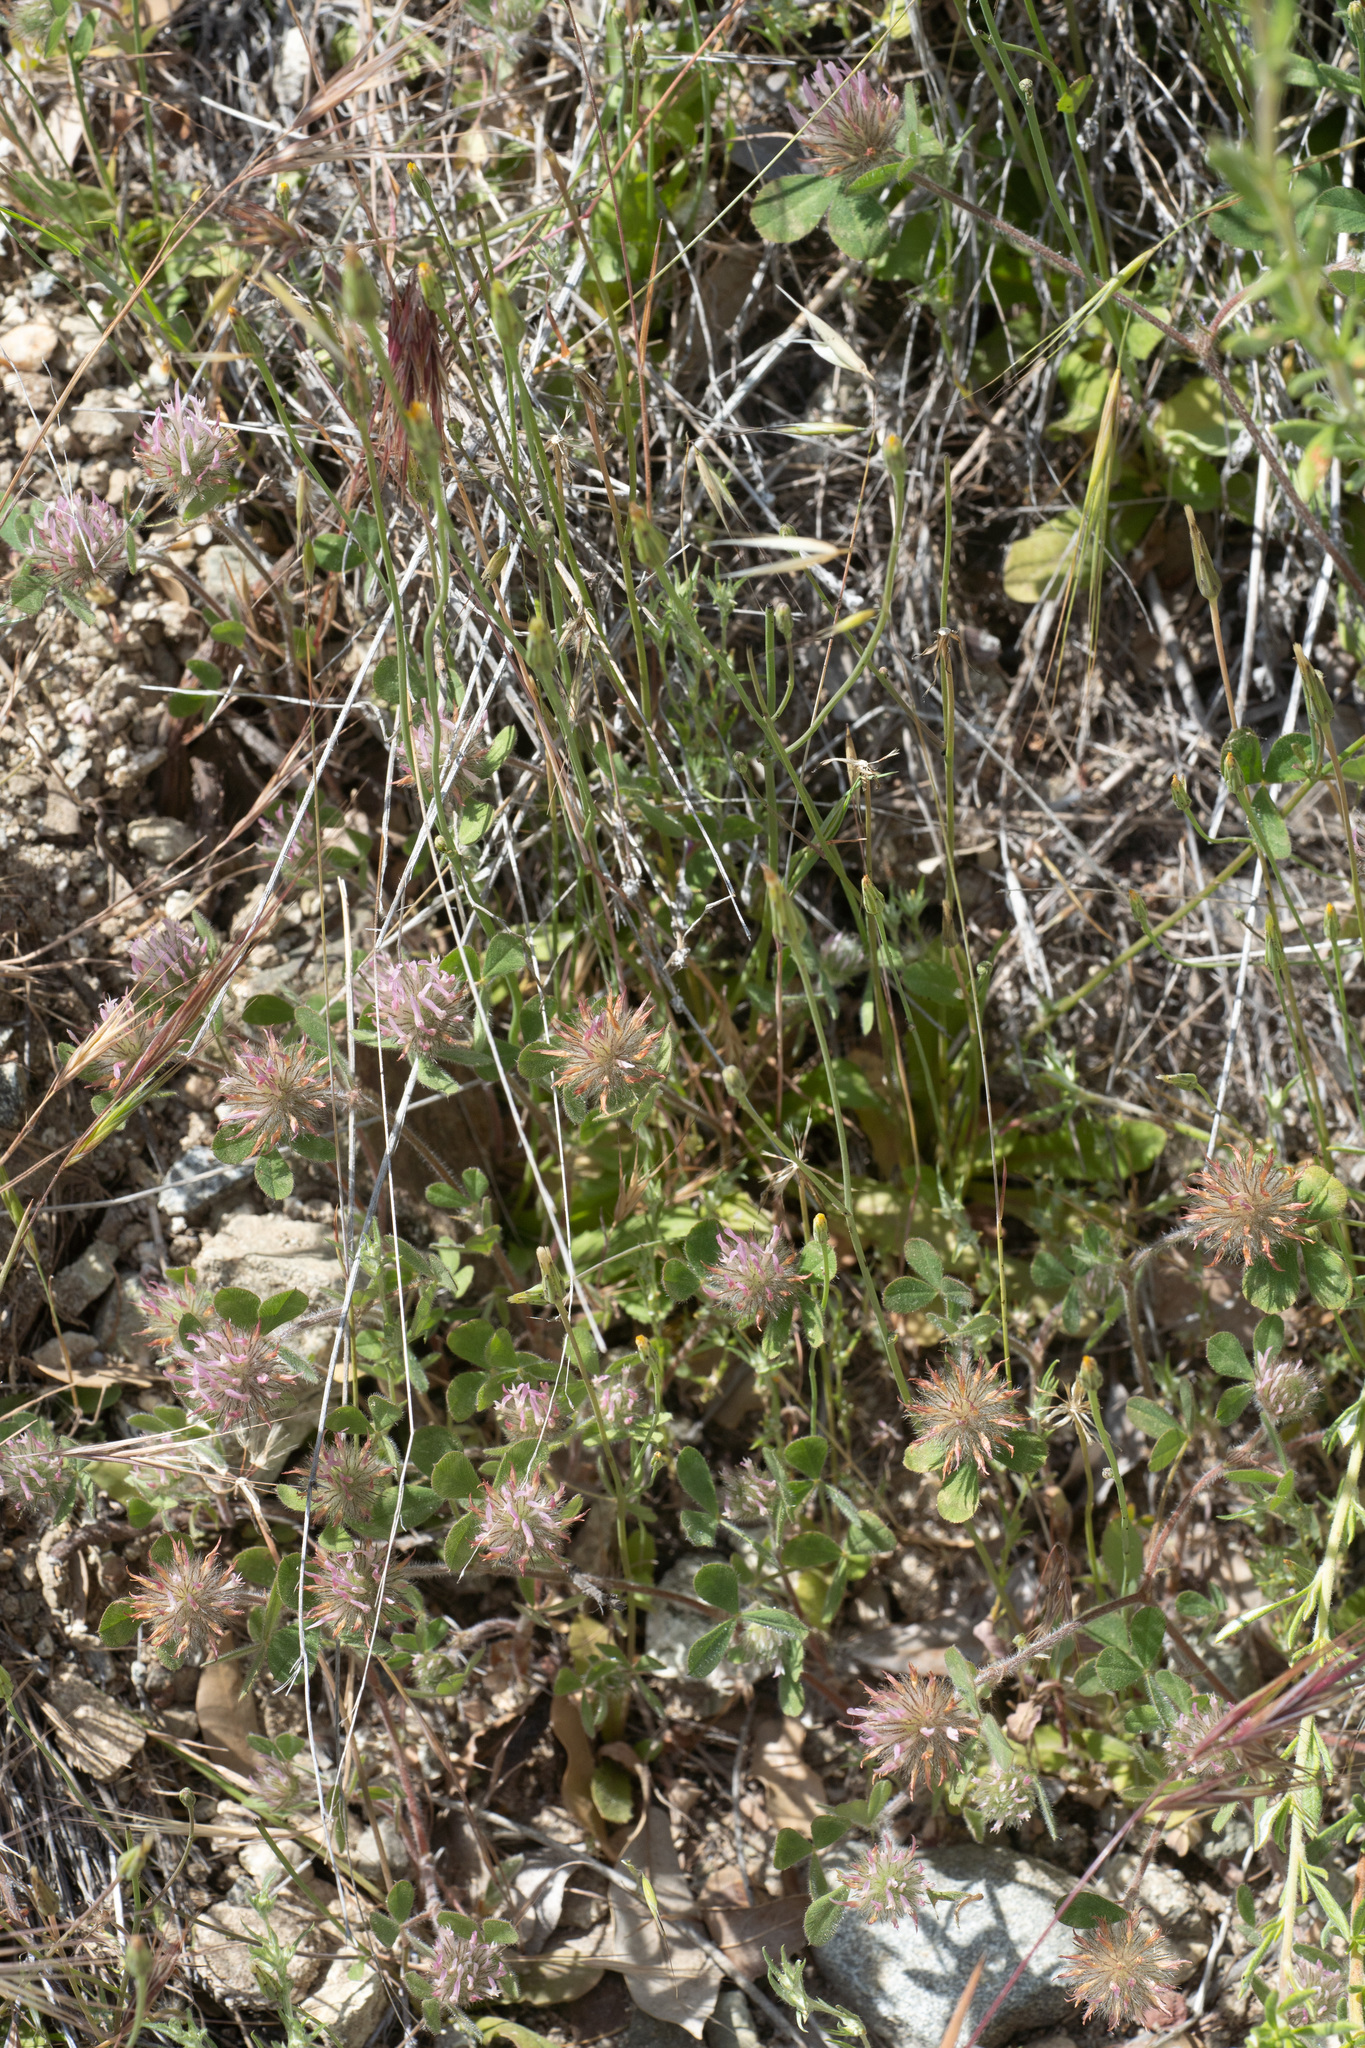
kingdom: Plantae
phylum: Tracheophyta
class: Magnoliopsida
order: Fabales
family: Fabaceae
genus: Trifolium
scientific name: Trifolium hirtum
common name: Rose clover
